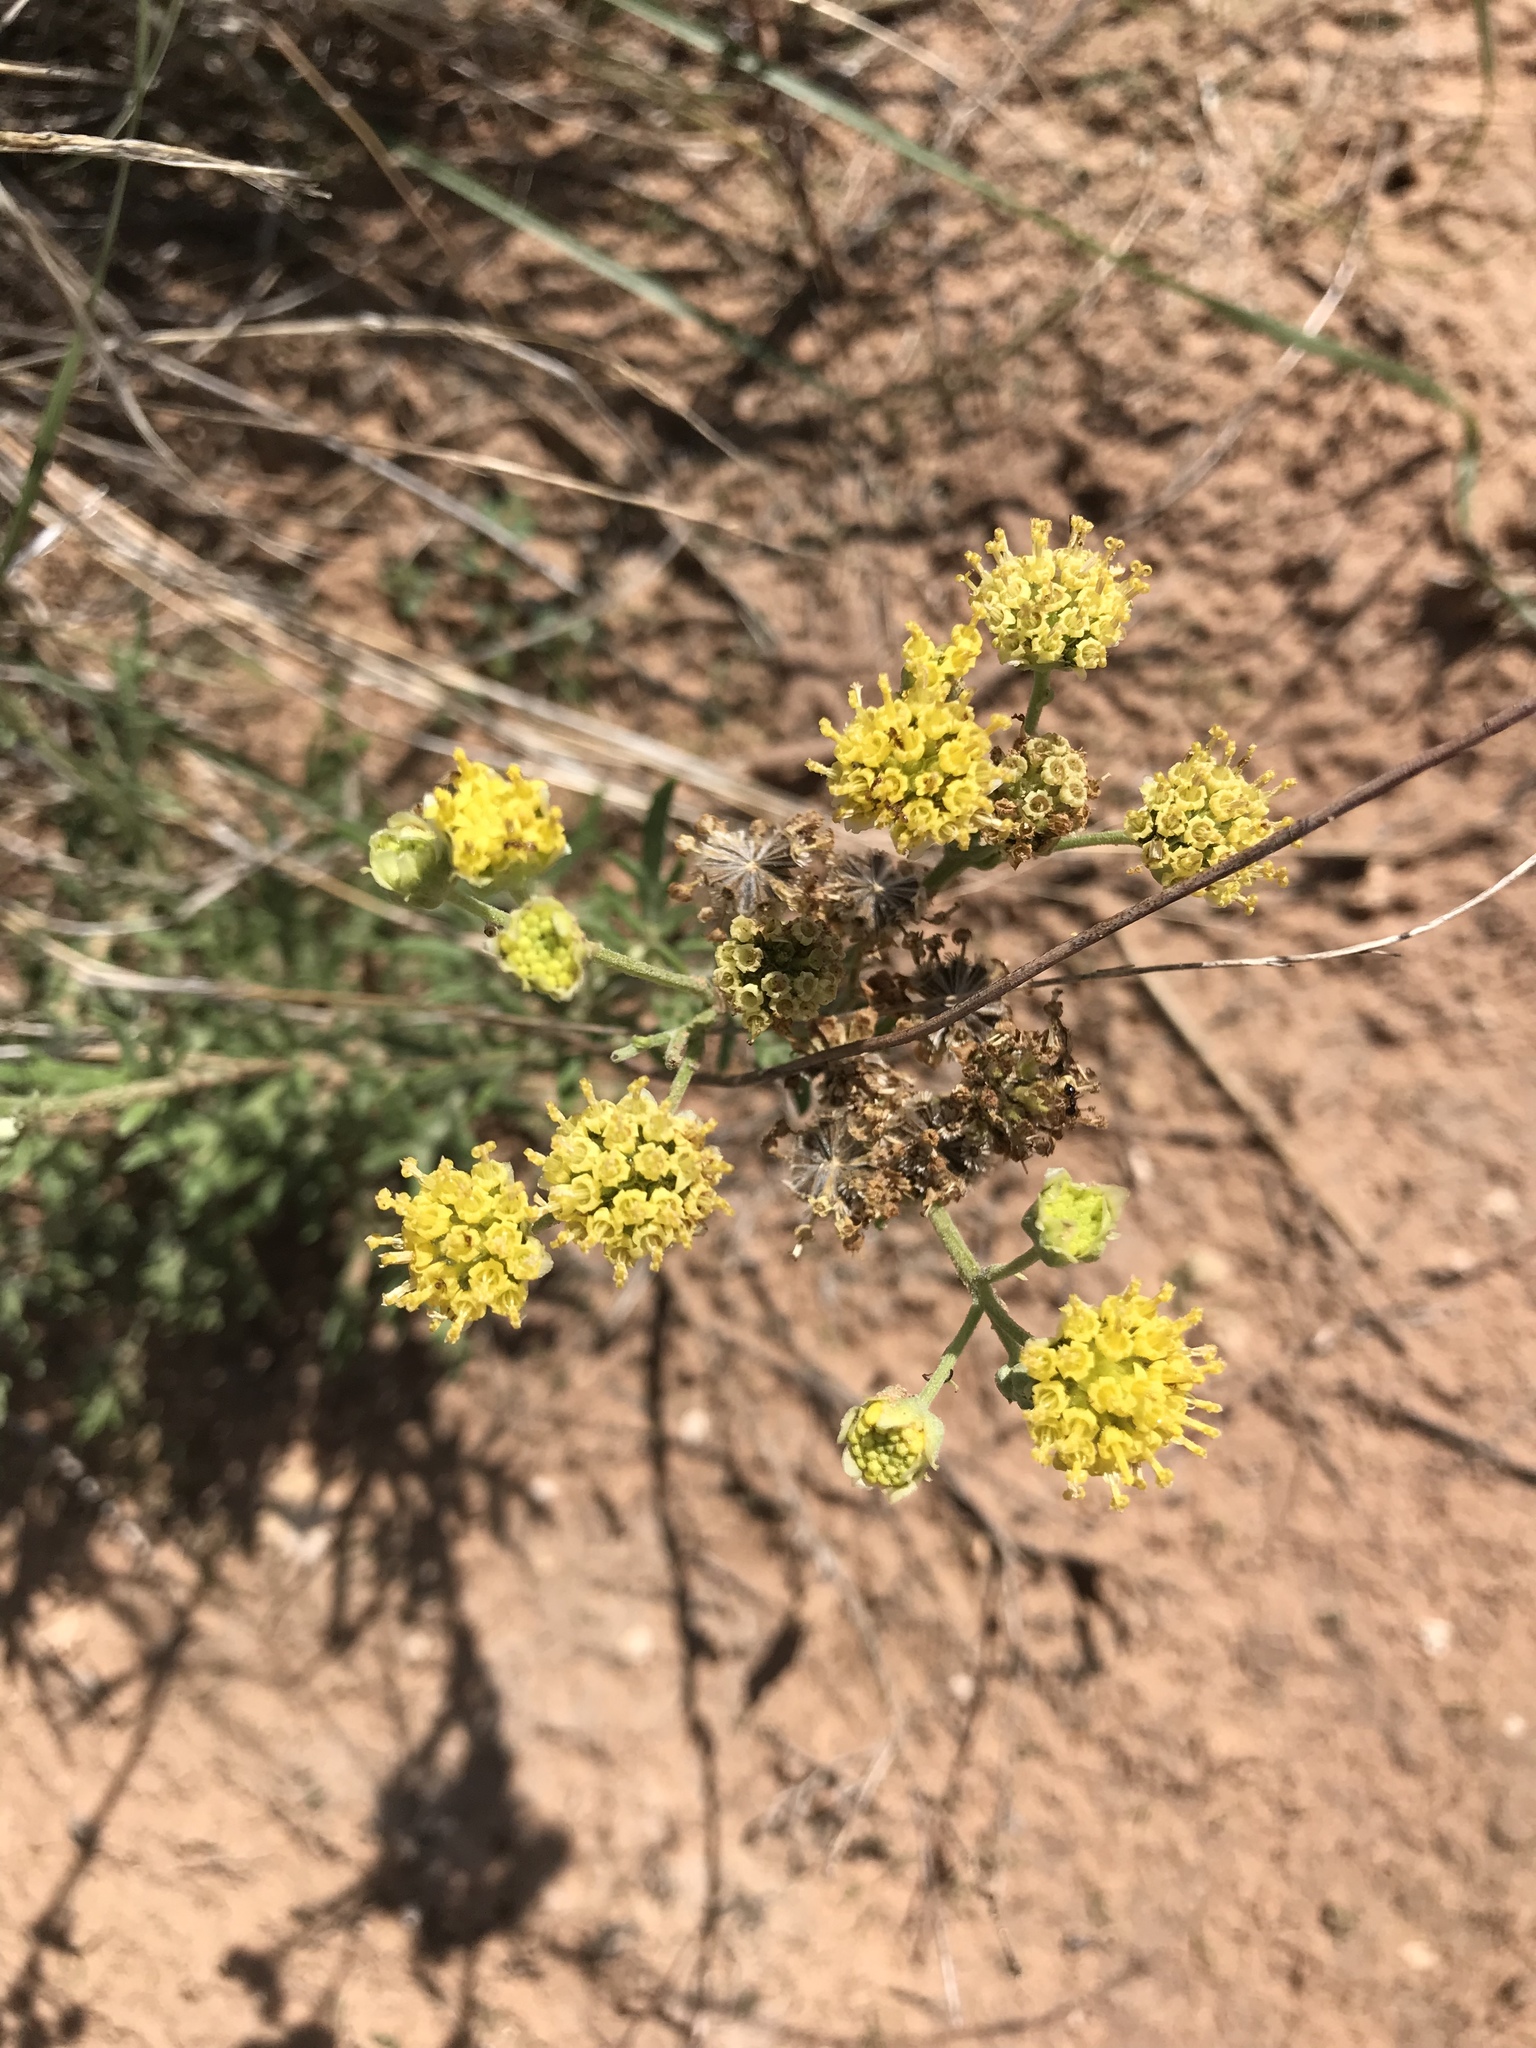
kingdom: Plantae
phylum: Tracheophyta
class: Magnoliopsida
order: Asterales
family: Asteraceae
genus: Hymenopappus
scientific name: Hymenopappus flavescens
